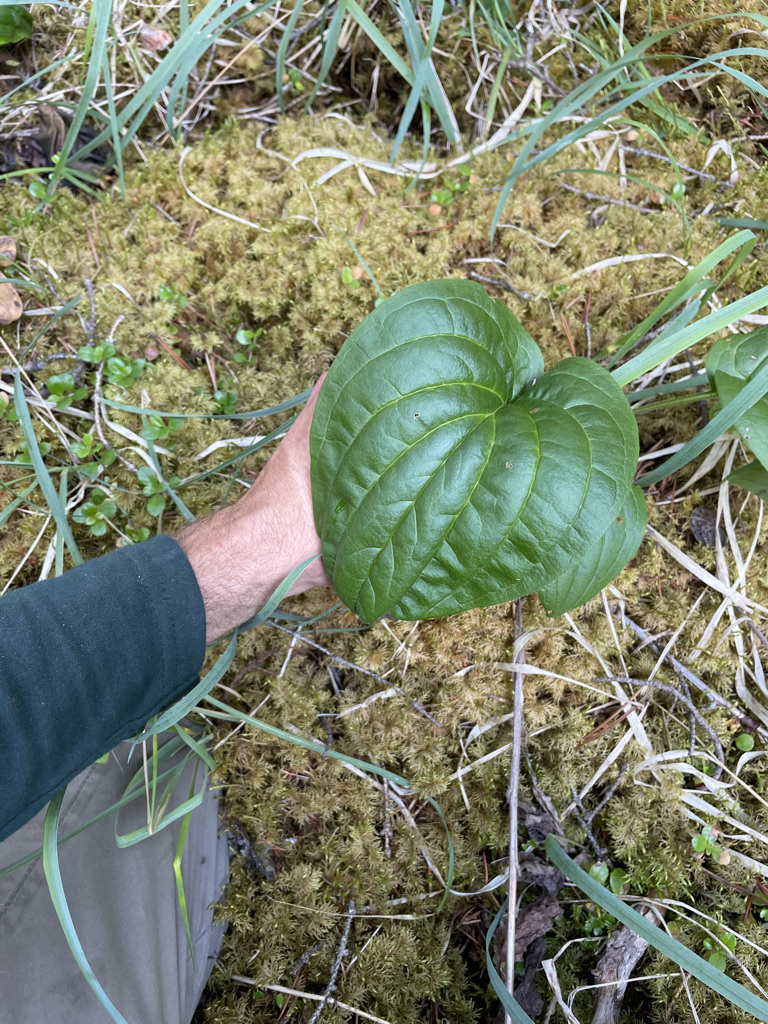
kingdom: Plantae
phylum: Tracheophyta
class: Magnoliopsida
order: Boraginales
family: Boraginaceae
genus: Mertensia
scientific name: Mertensia paniculata
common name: Panicled bluebells
